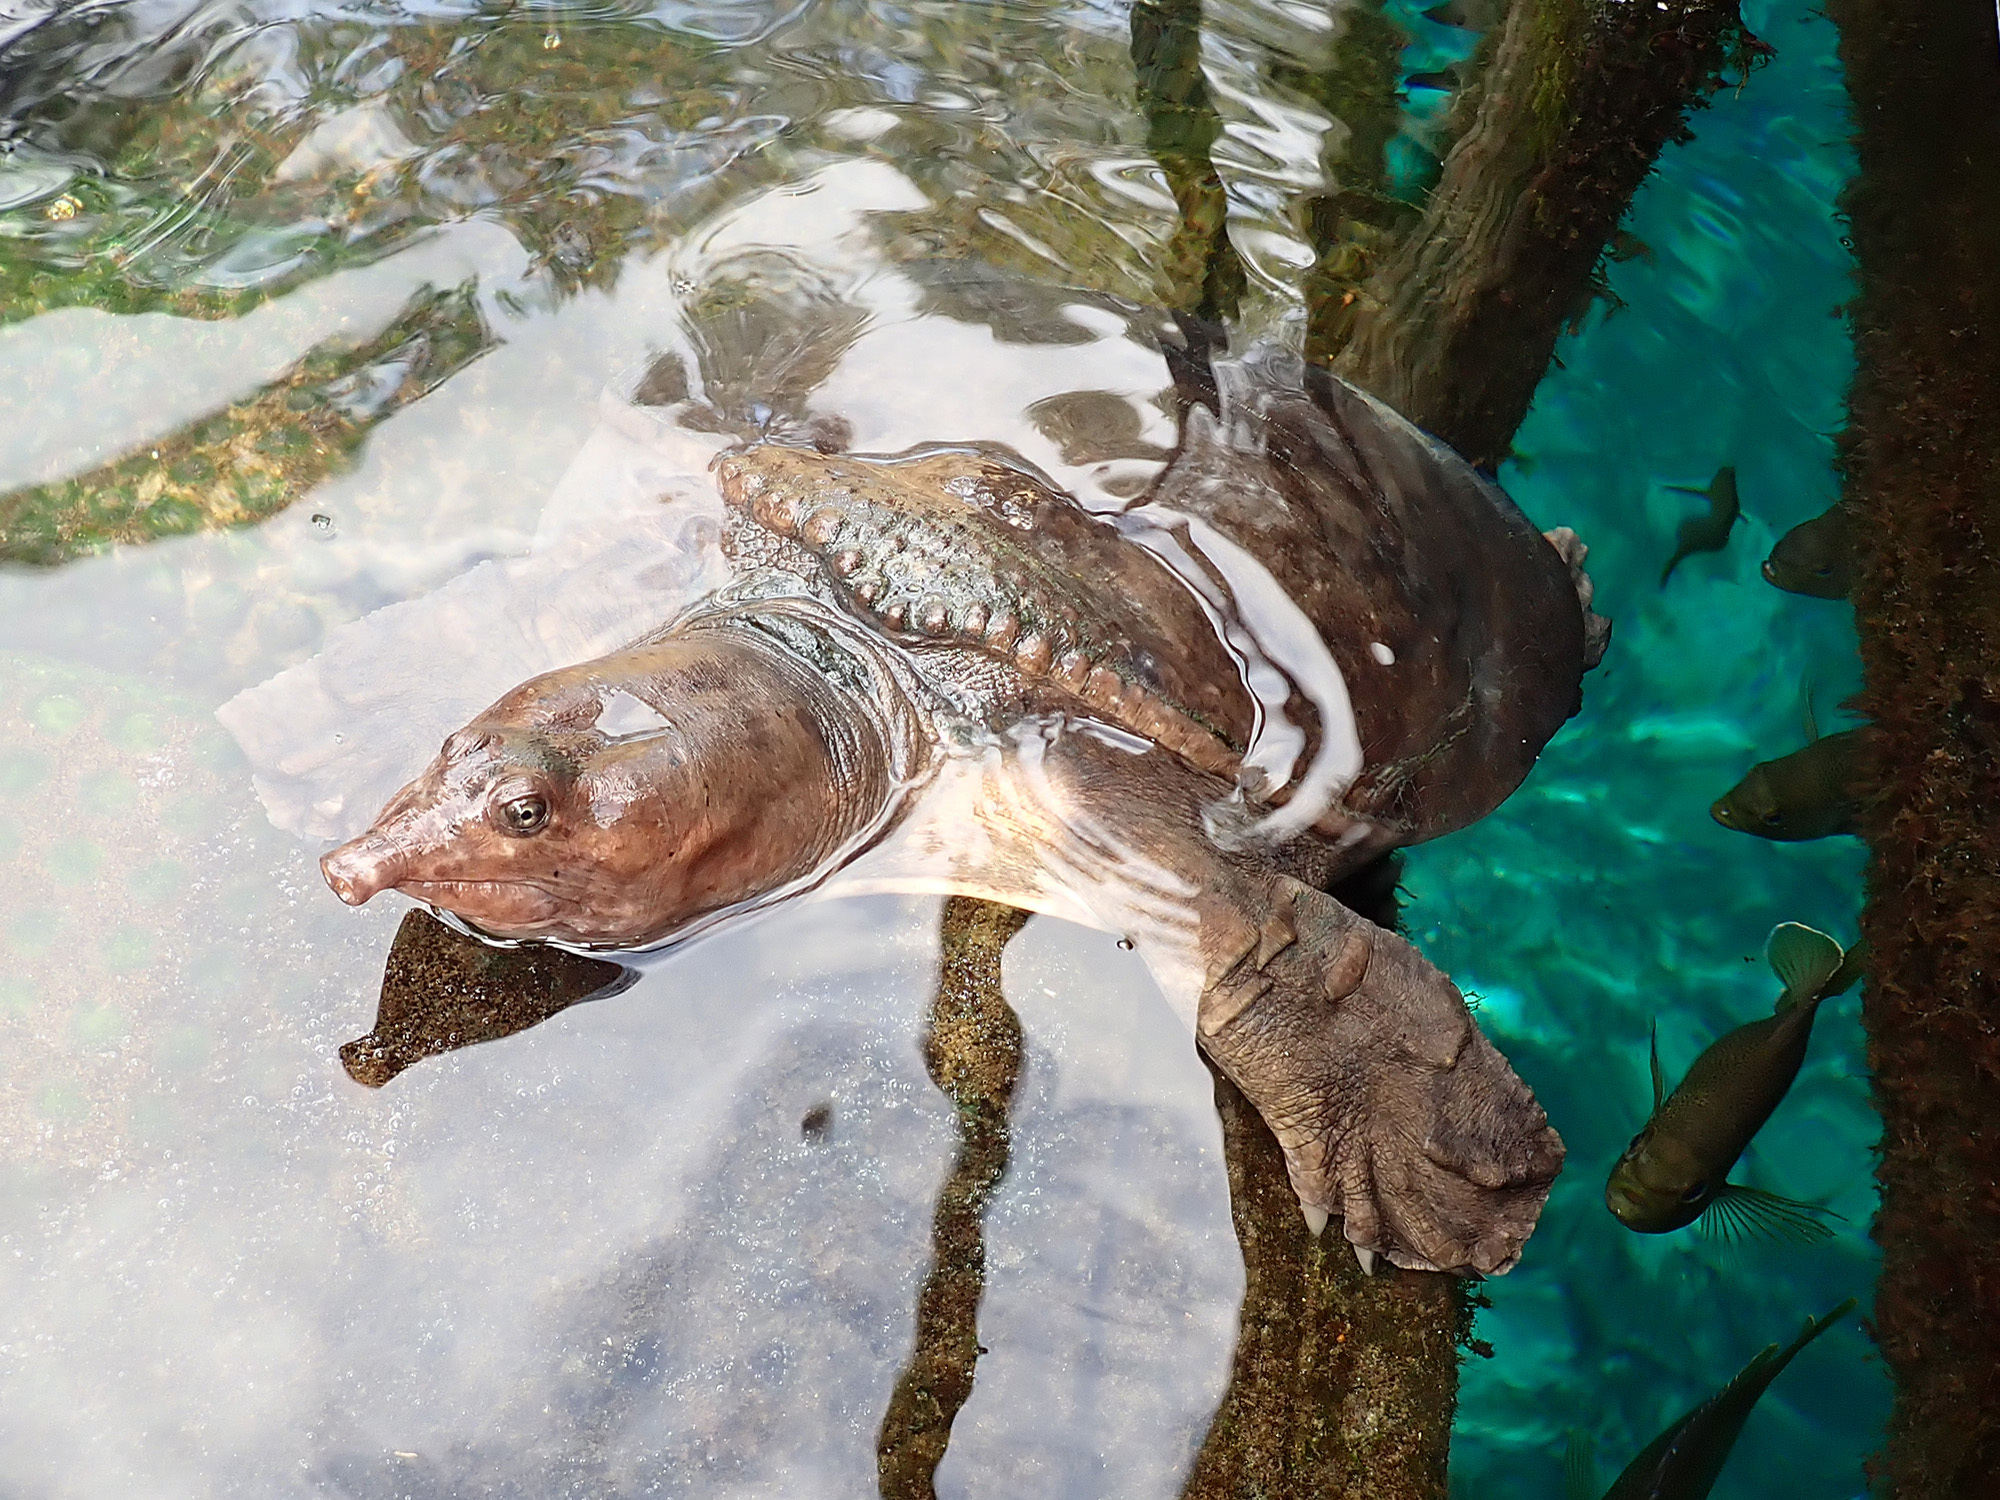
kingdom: Animalia
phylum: Chordata
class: Testudines
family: Trionychidae
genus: Apalone
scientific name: Apalone ferox
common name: Florida softshell turtle
